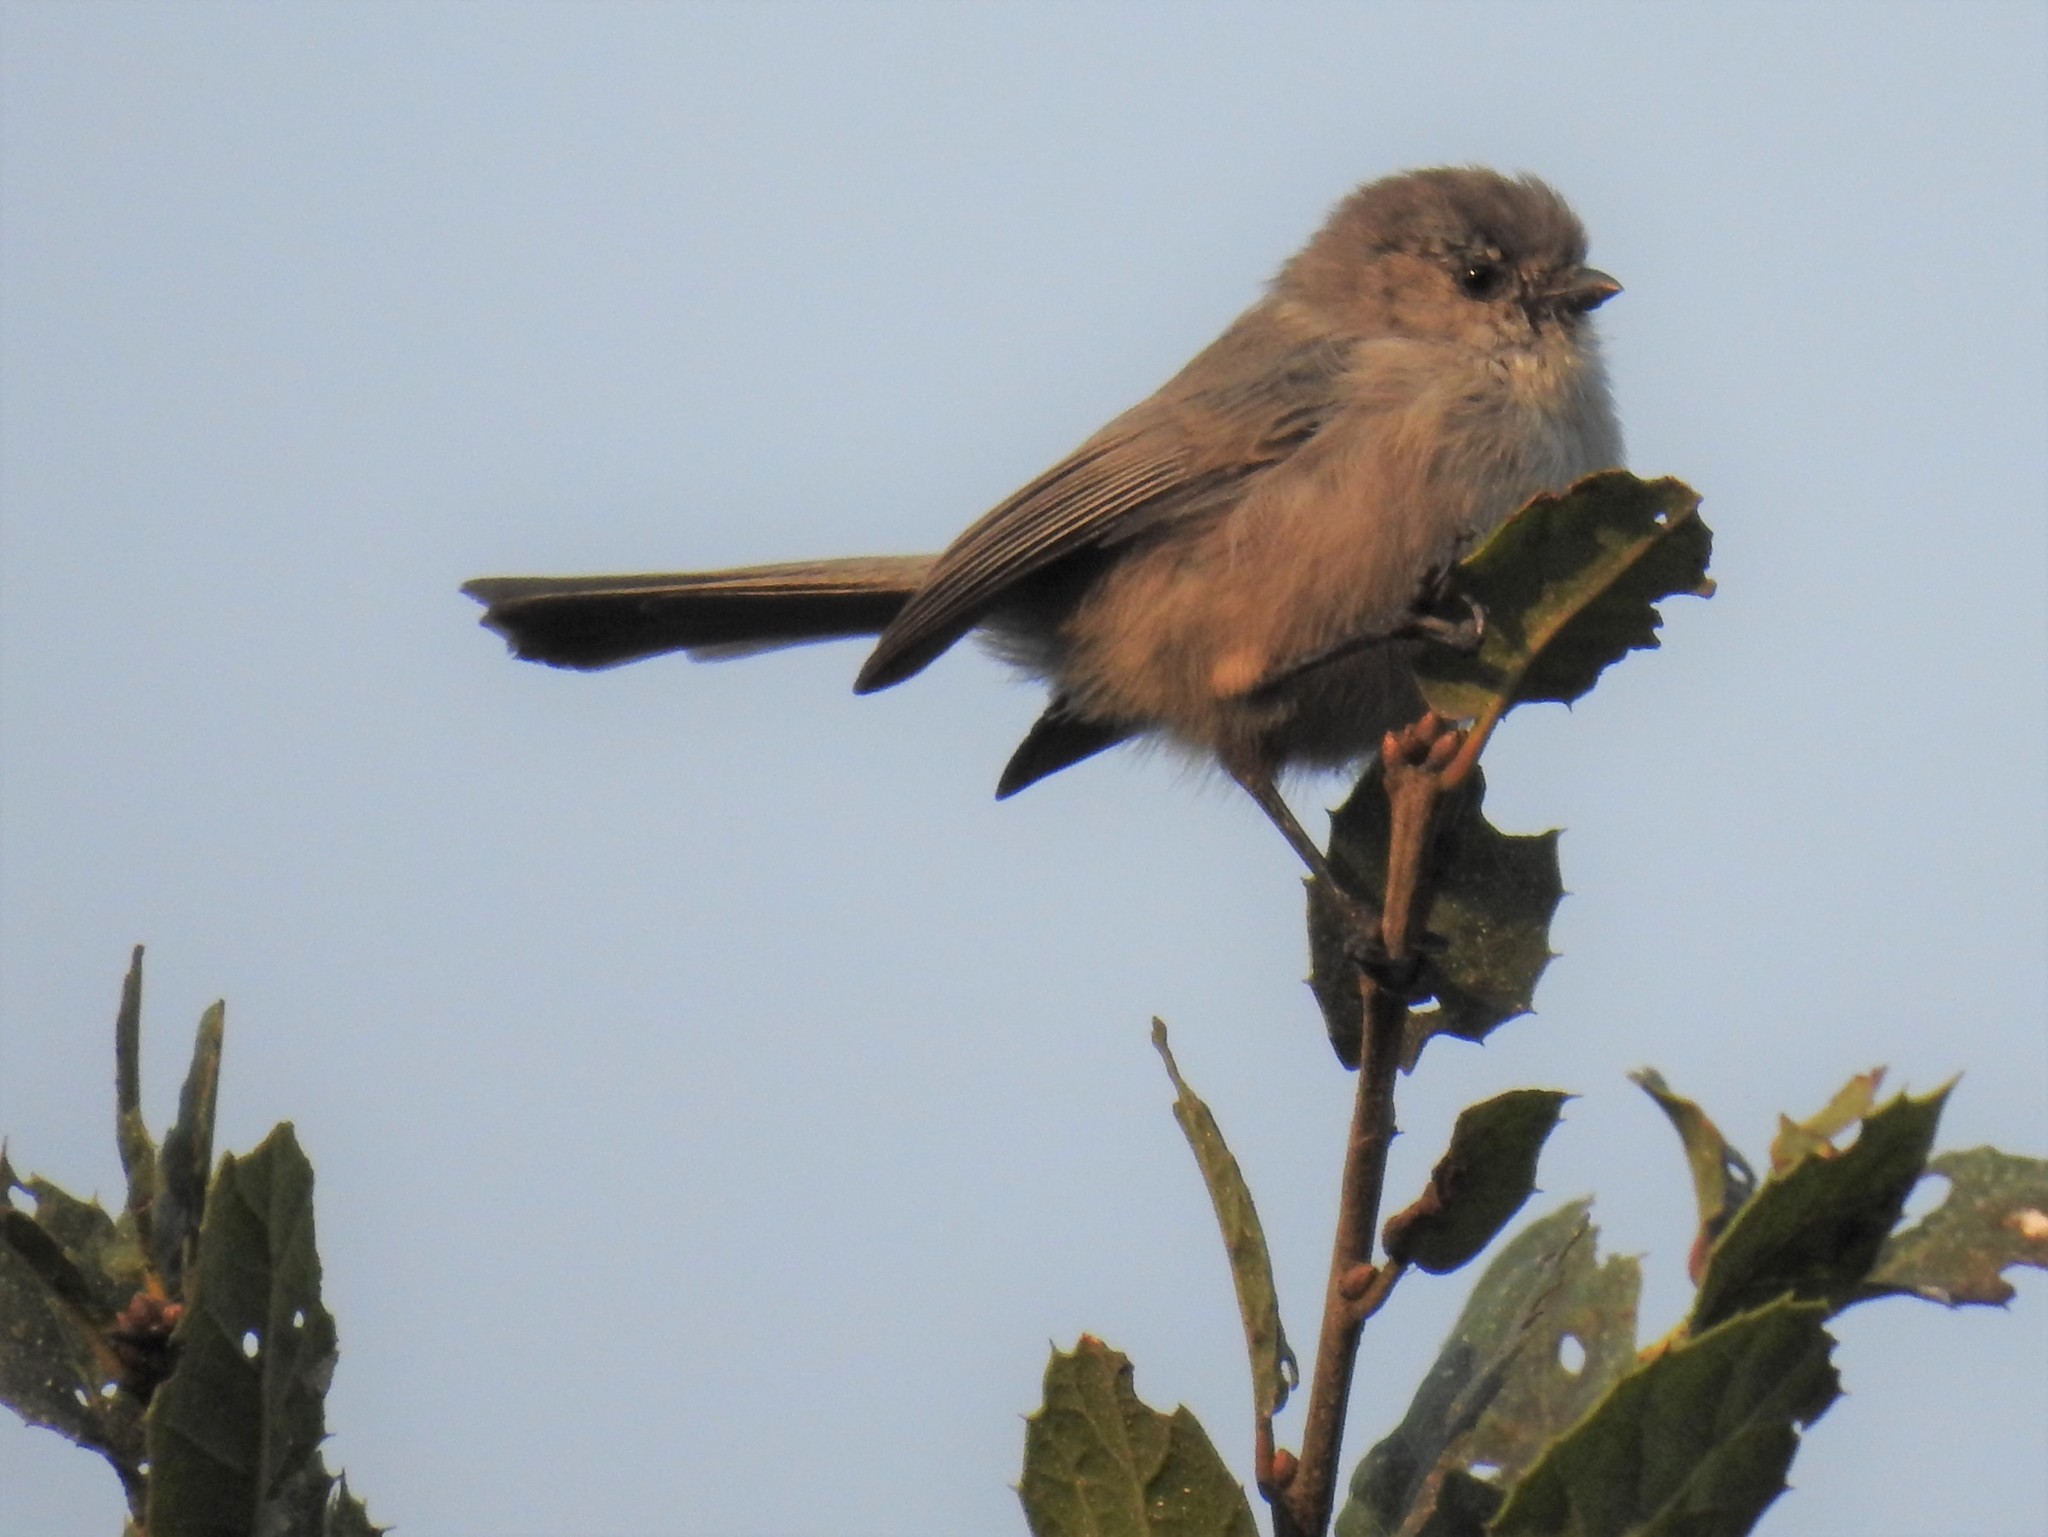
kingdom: Animalia
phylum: Chordata
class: Aves
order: Passeriformes
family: Aegithalidae
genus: Psaltriparus
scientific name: Psaltriparus minimus
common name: American bushtit
